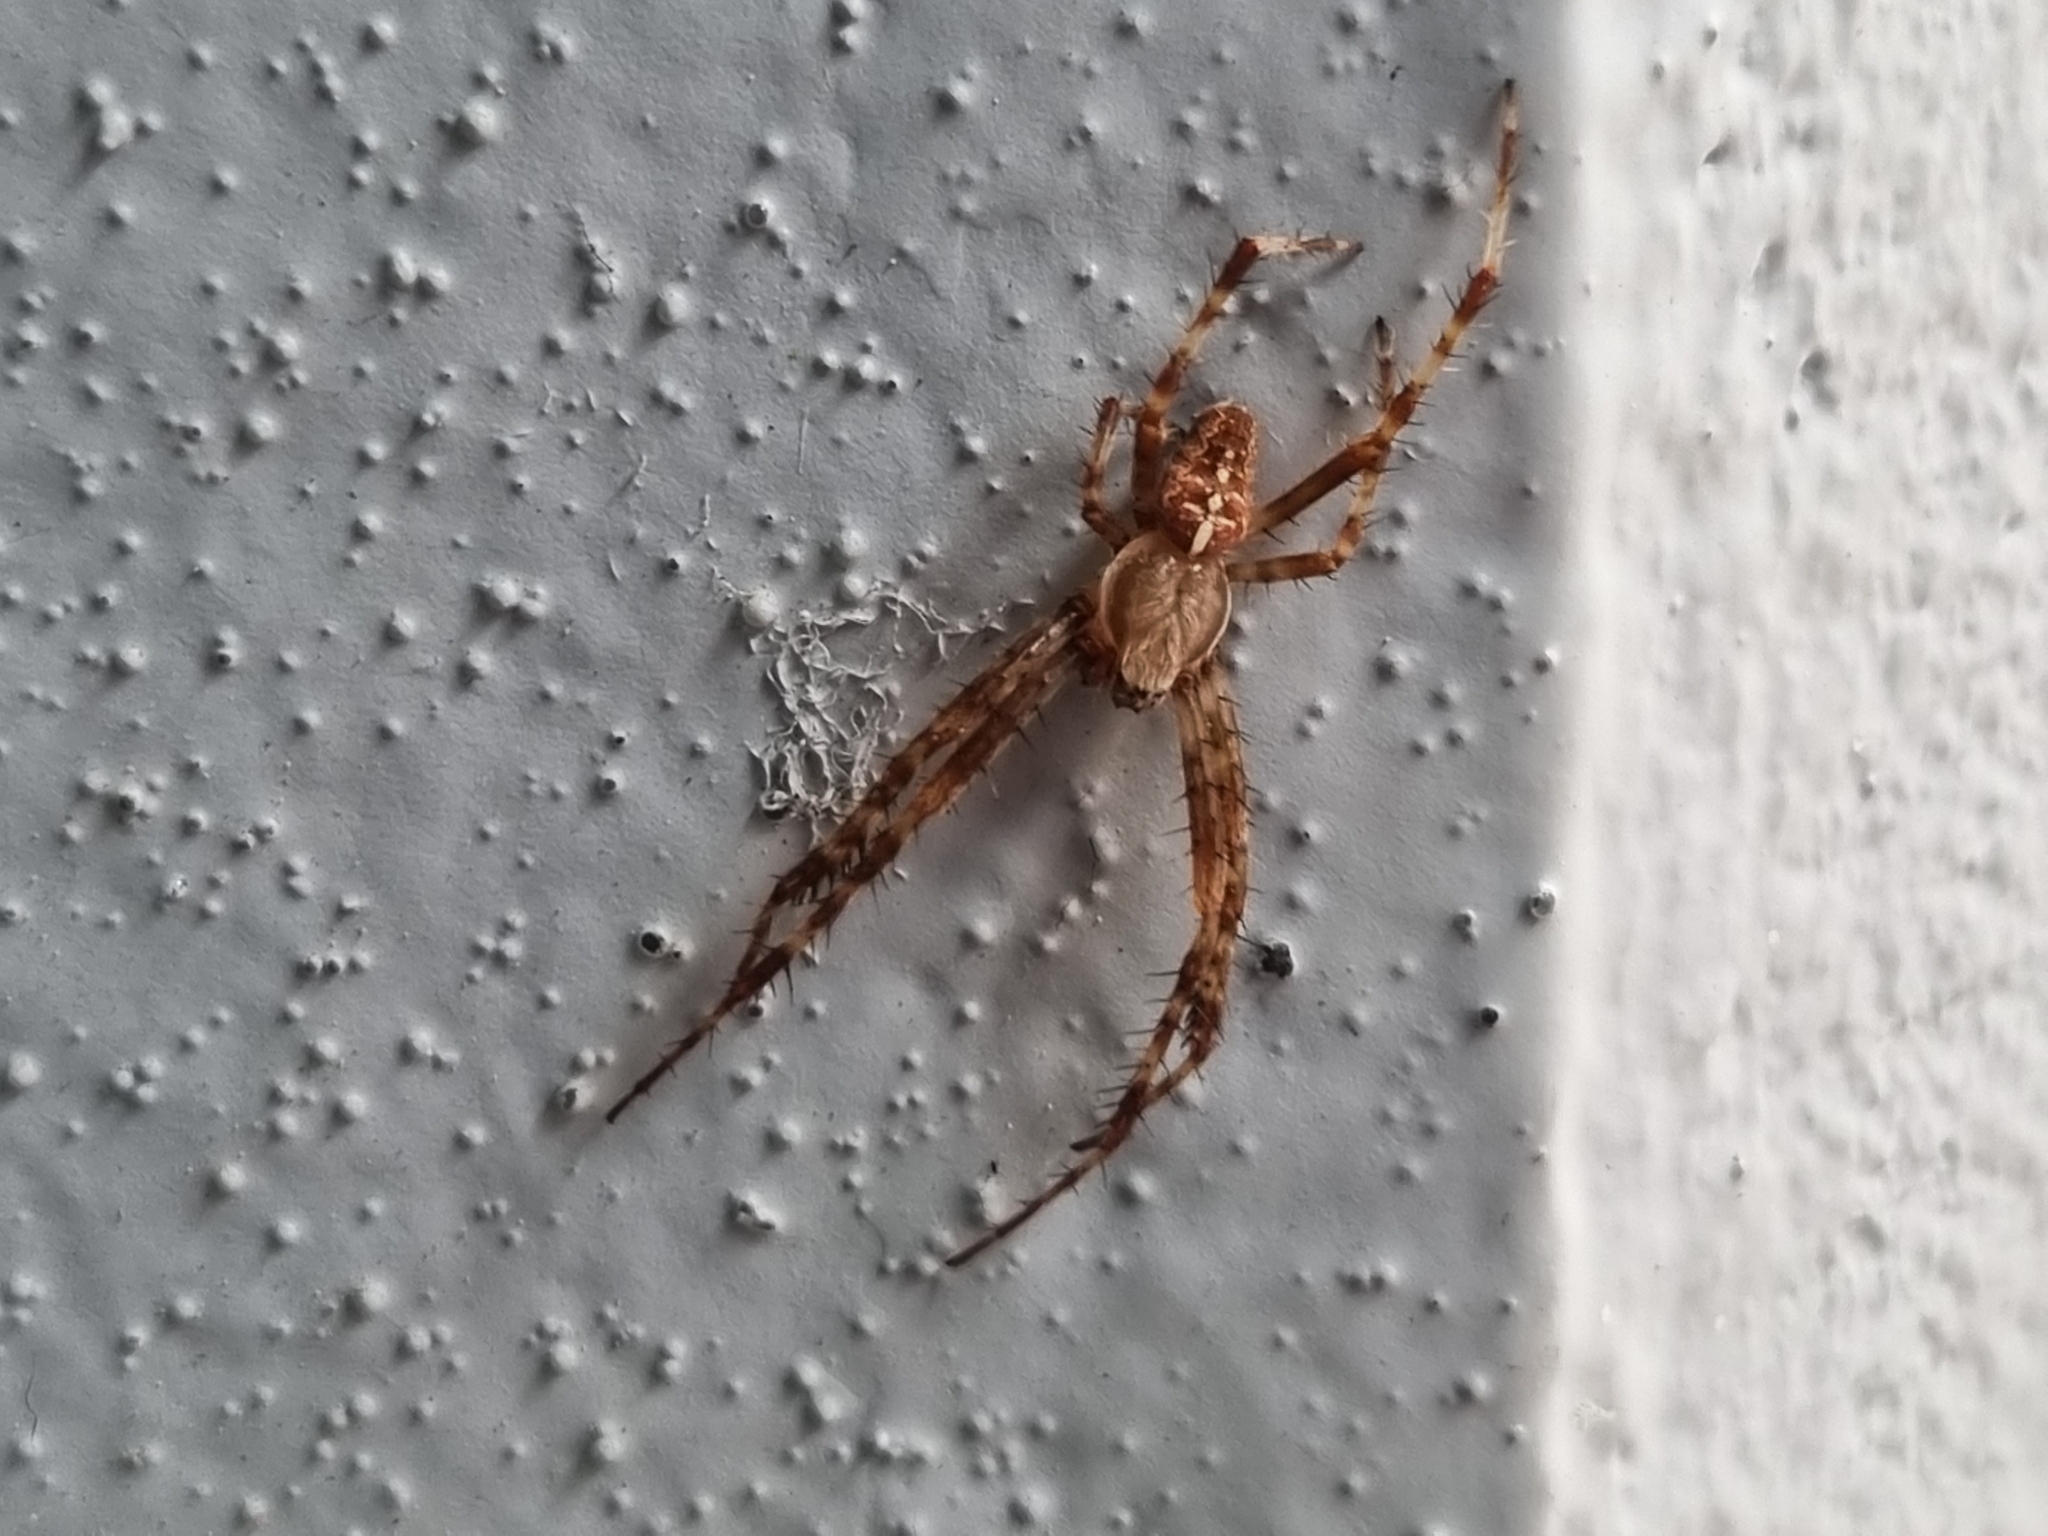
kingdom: Animalia
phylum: Arthropoda
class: Arachnida
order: Araneae
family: Araneidae
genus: Araneus
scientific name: Araneus diadematus
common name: Cross orbweaver
